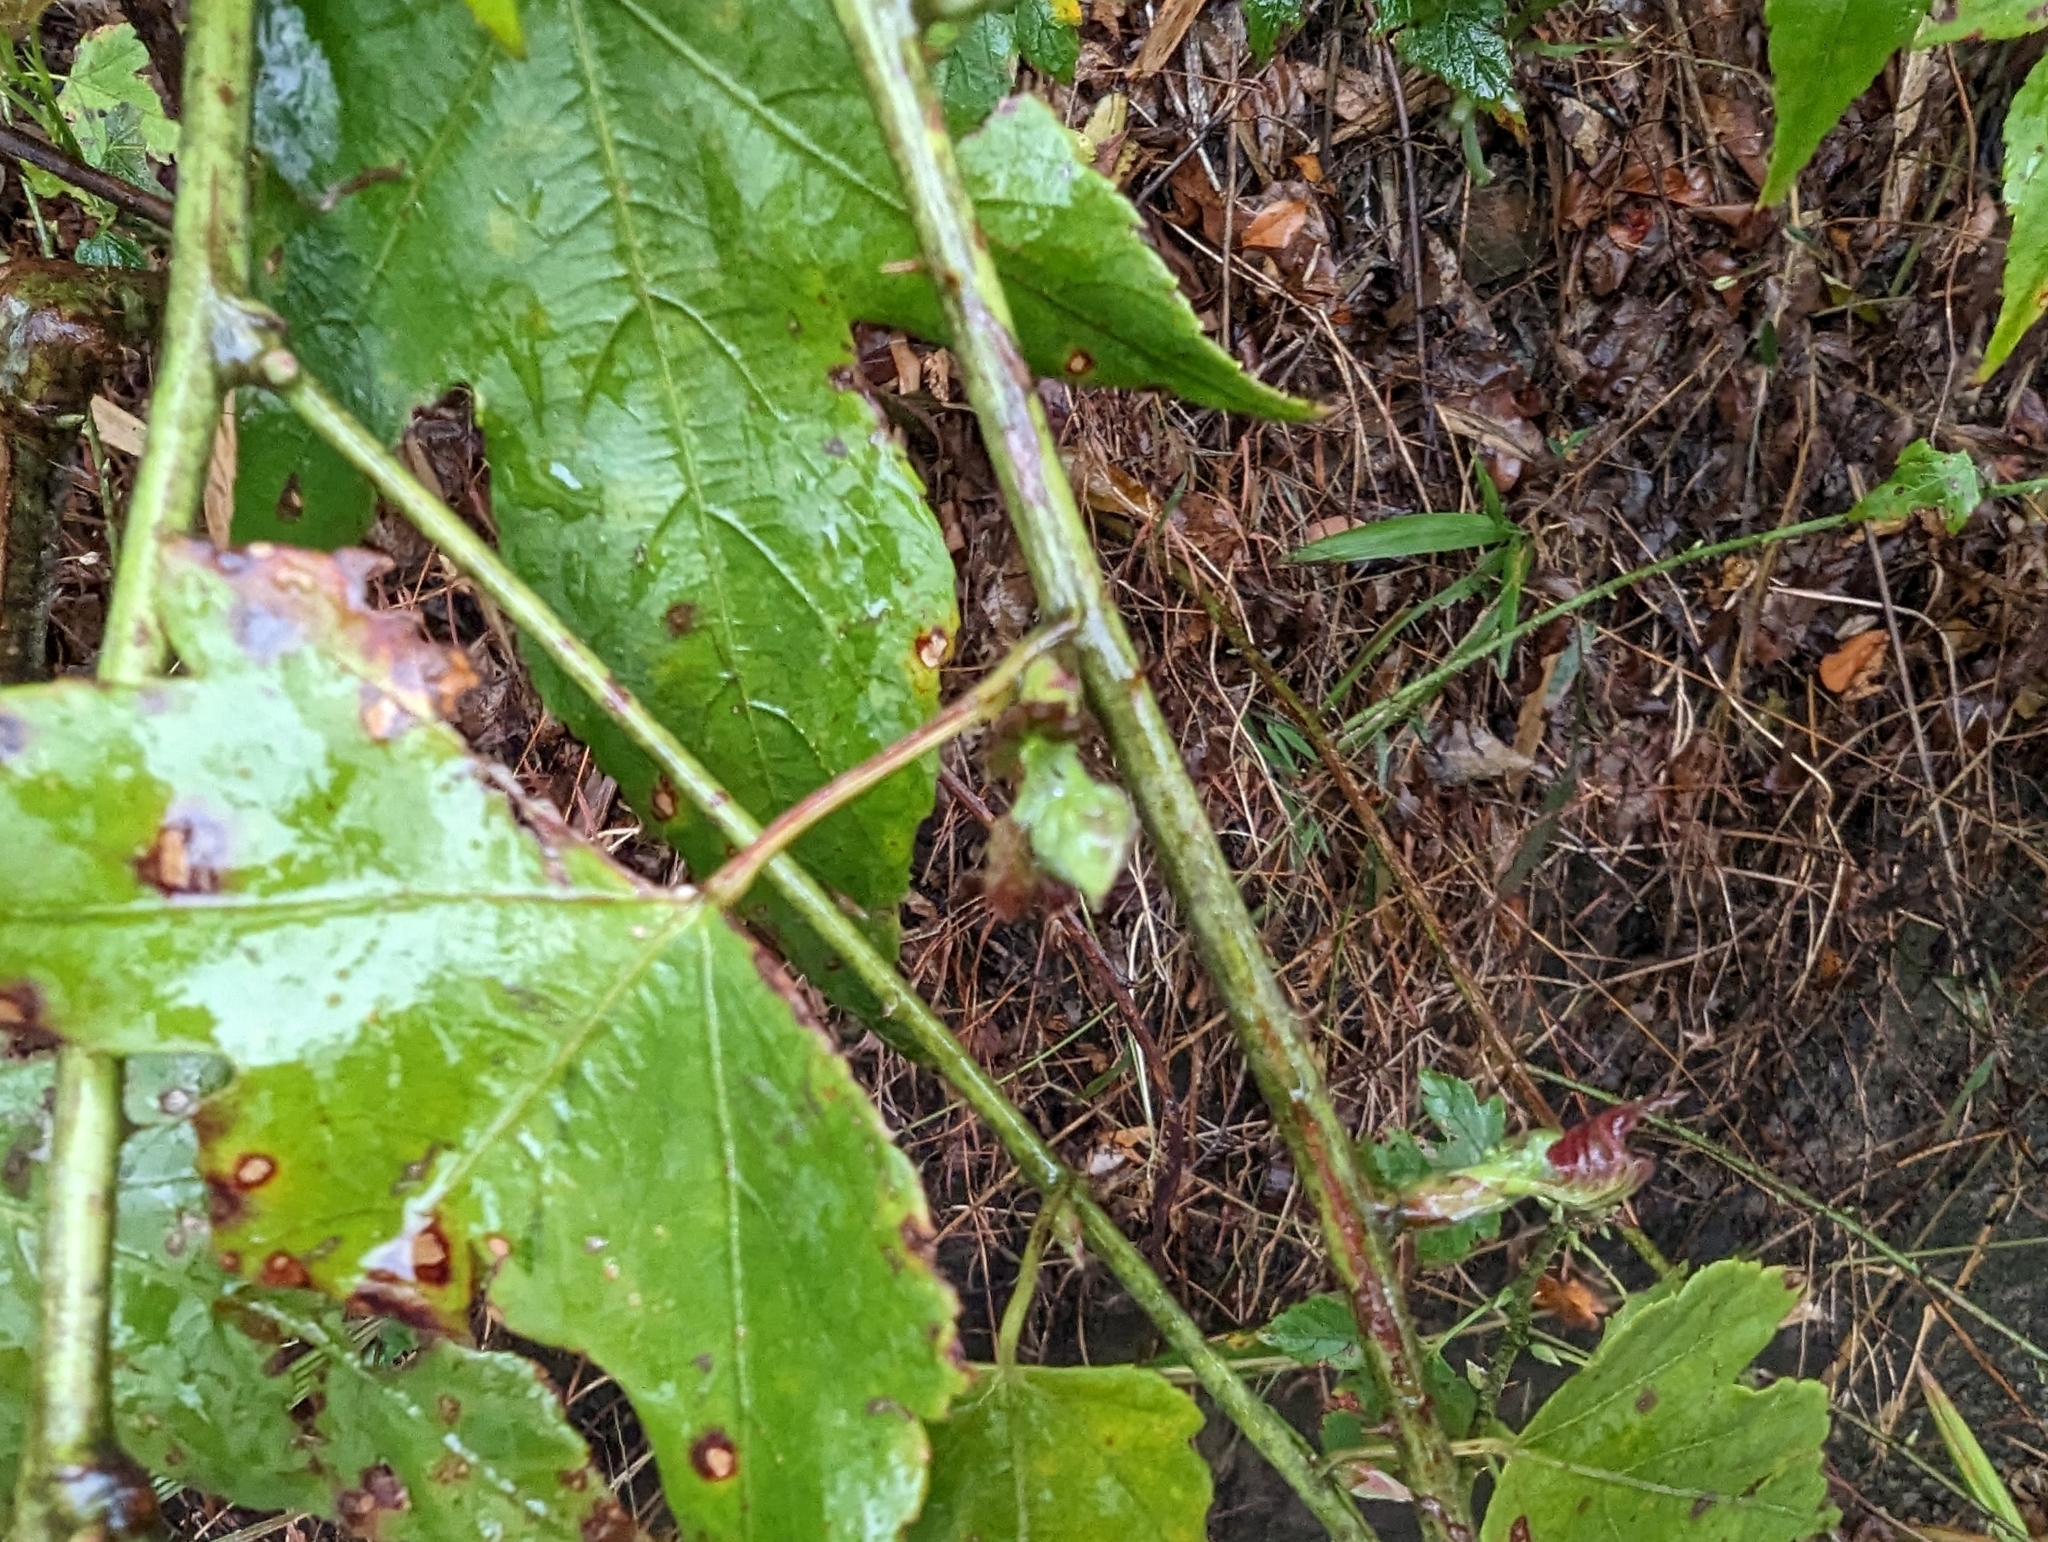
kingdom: Plantae
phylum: Tracheophyta
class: Magnoliopsida
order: Rosales
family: Rosaceae
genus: Rubus
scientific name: Rubus corchorifolius
